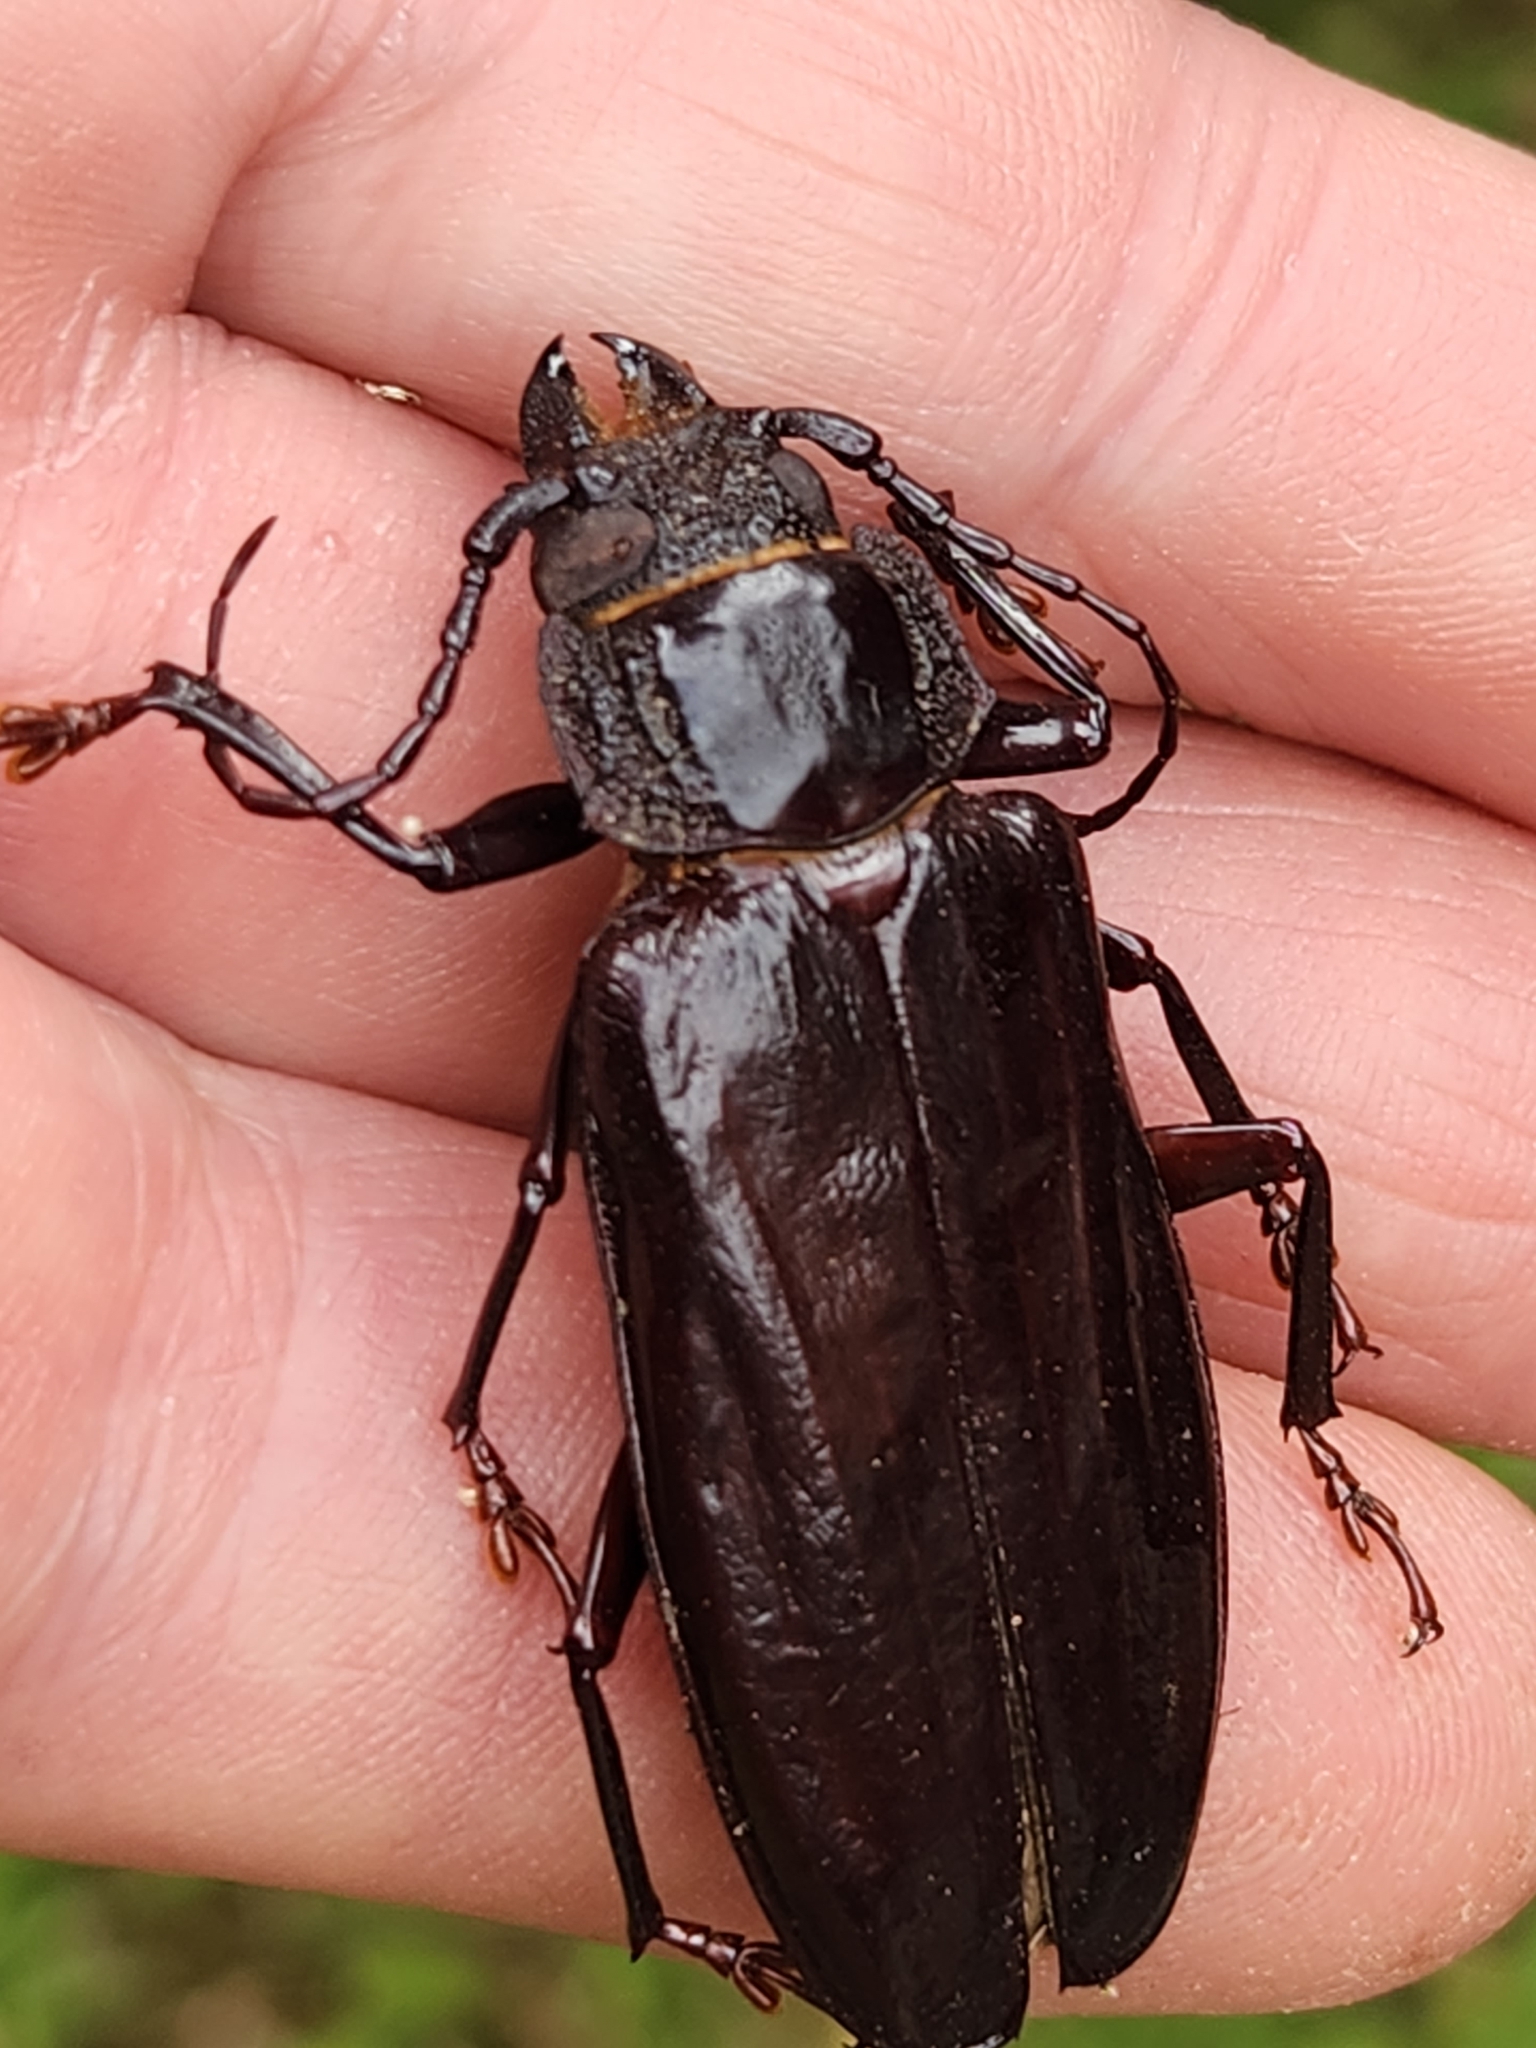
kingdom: Animalia
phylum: Arthropoda
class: Insecta
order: Coleoptera
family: Cerambycidae
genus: Mallodon
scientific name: Mallodon chevrolatii
